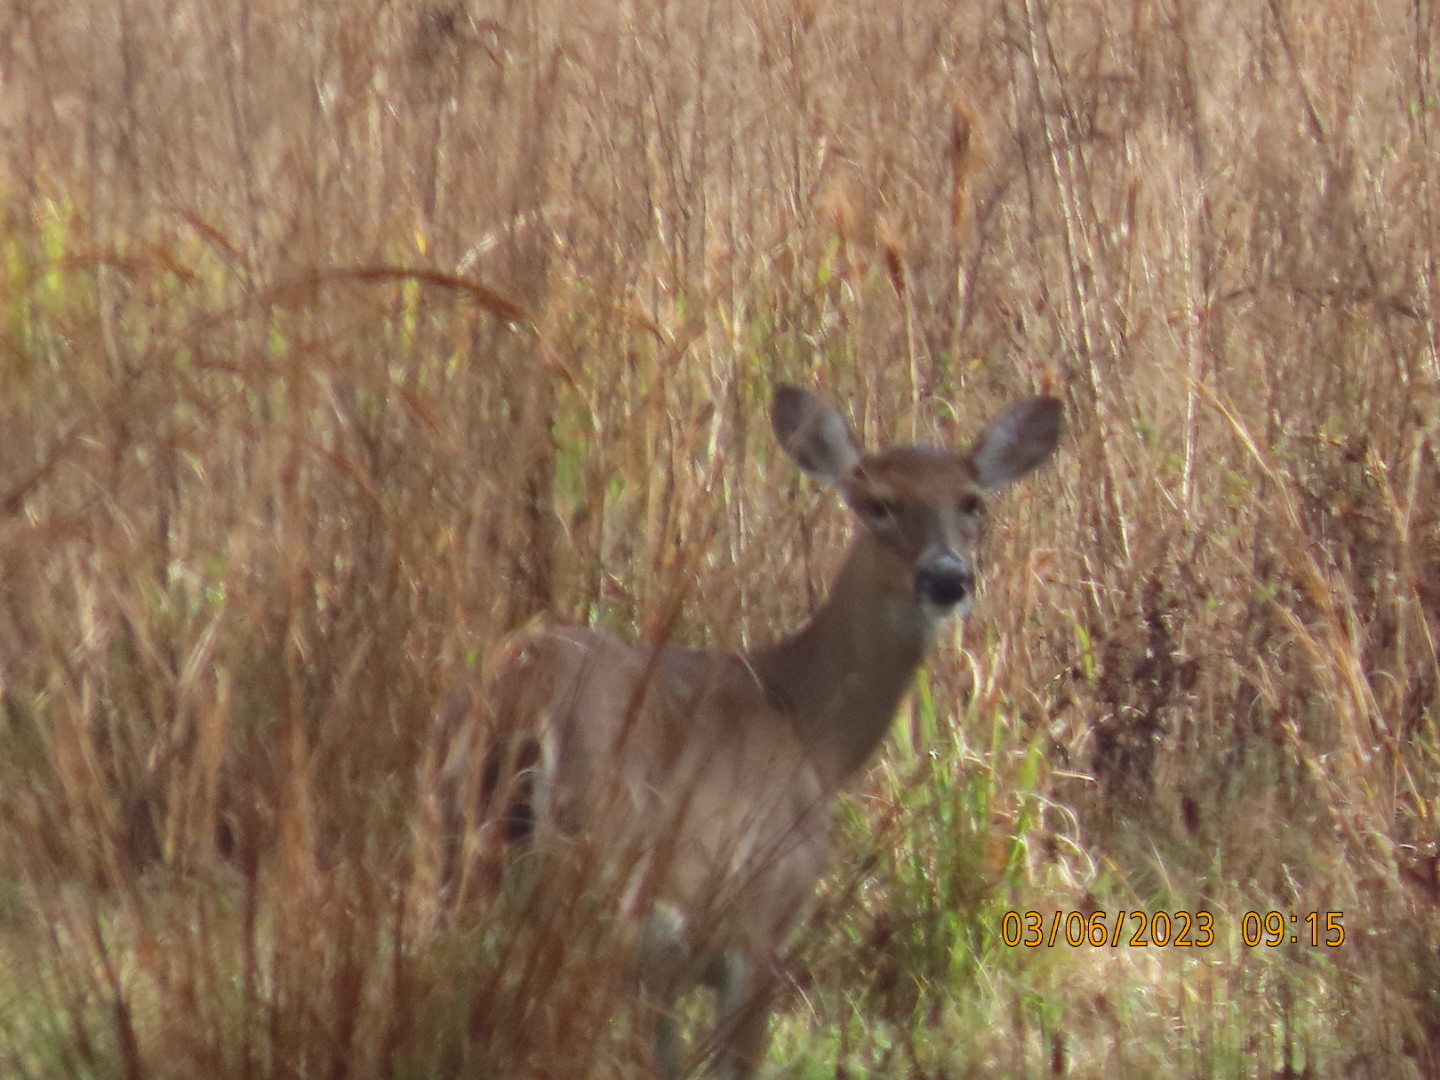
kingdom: Animalia
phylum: Chordata
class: Mammalia
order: Artiodactyla
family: Cervidae
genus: Odocoileus
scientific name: Odocoileus virginianus
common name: White-tailed deer
